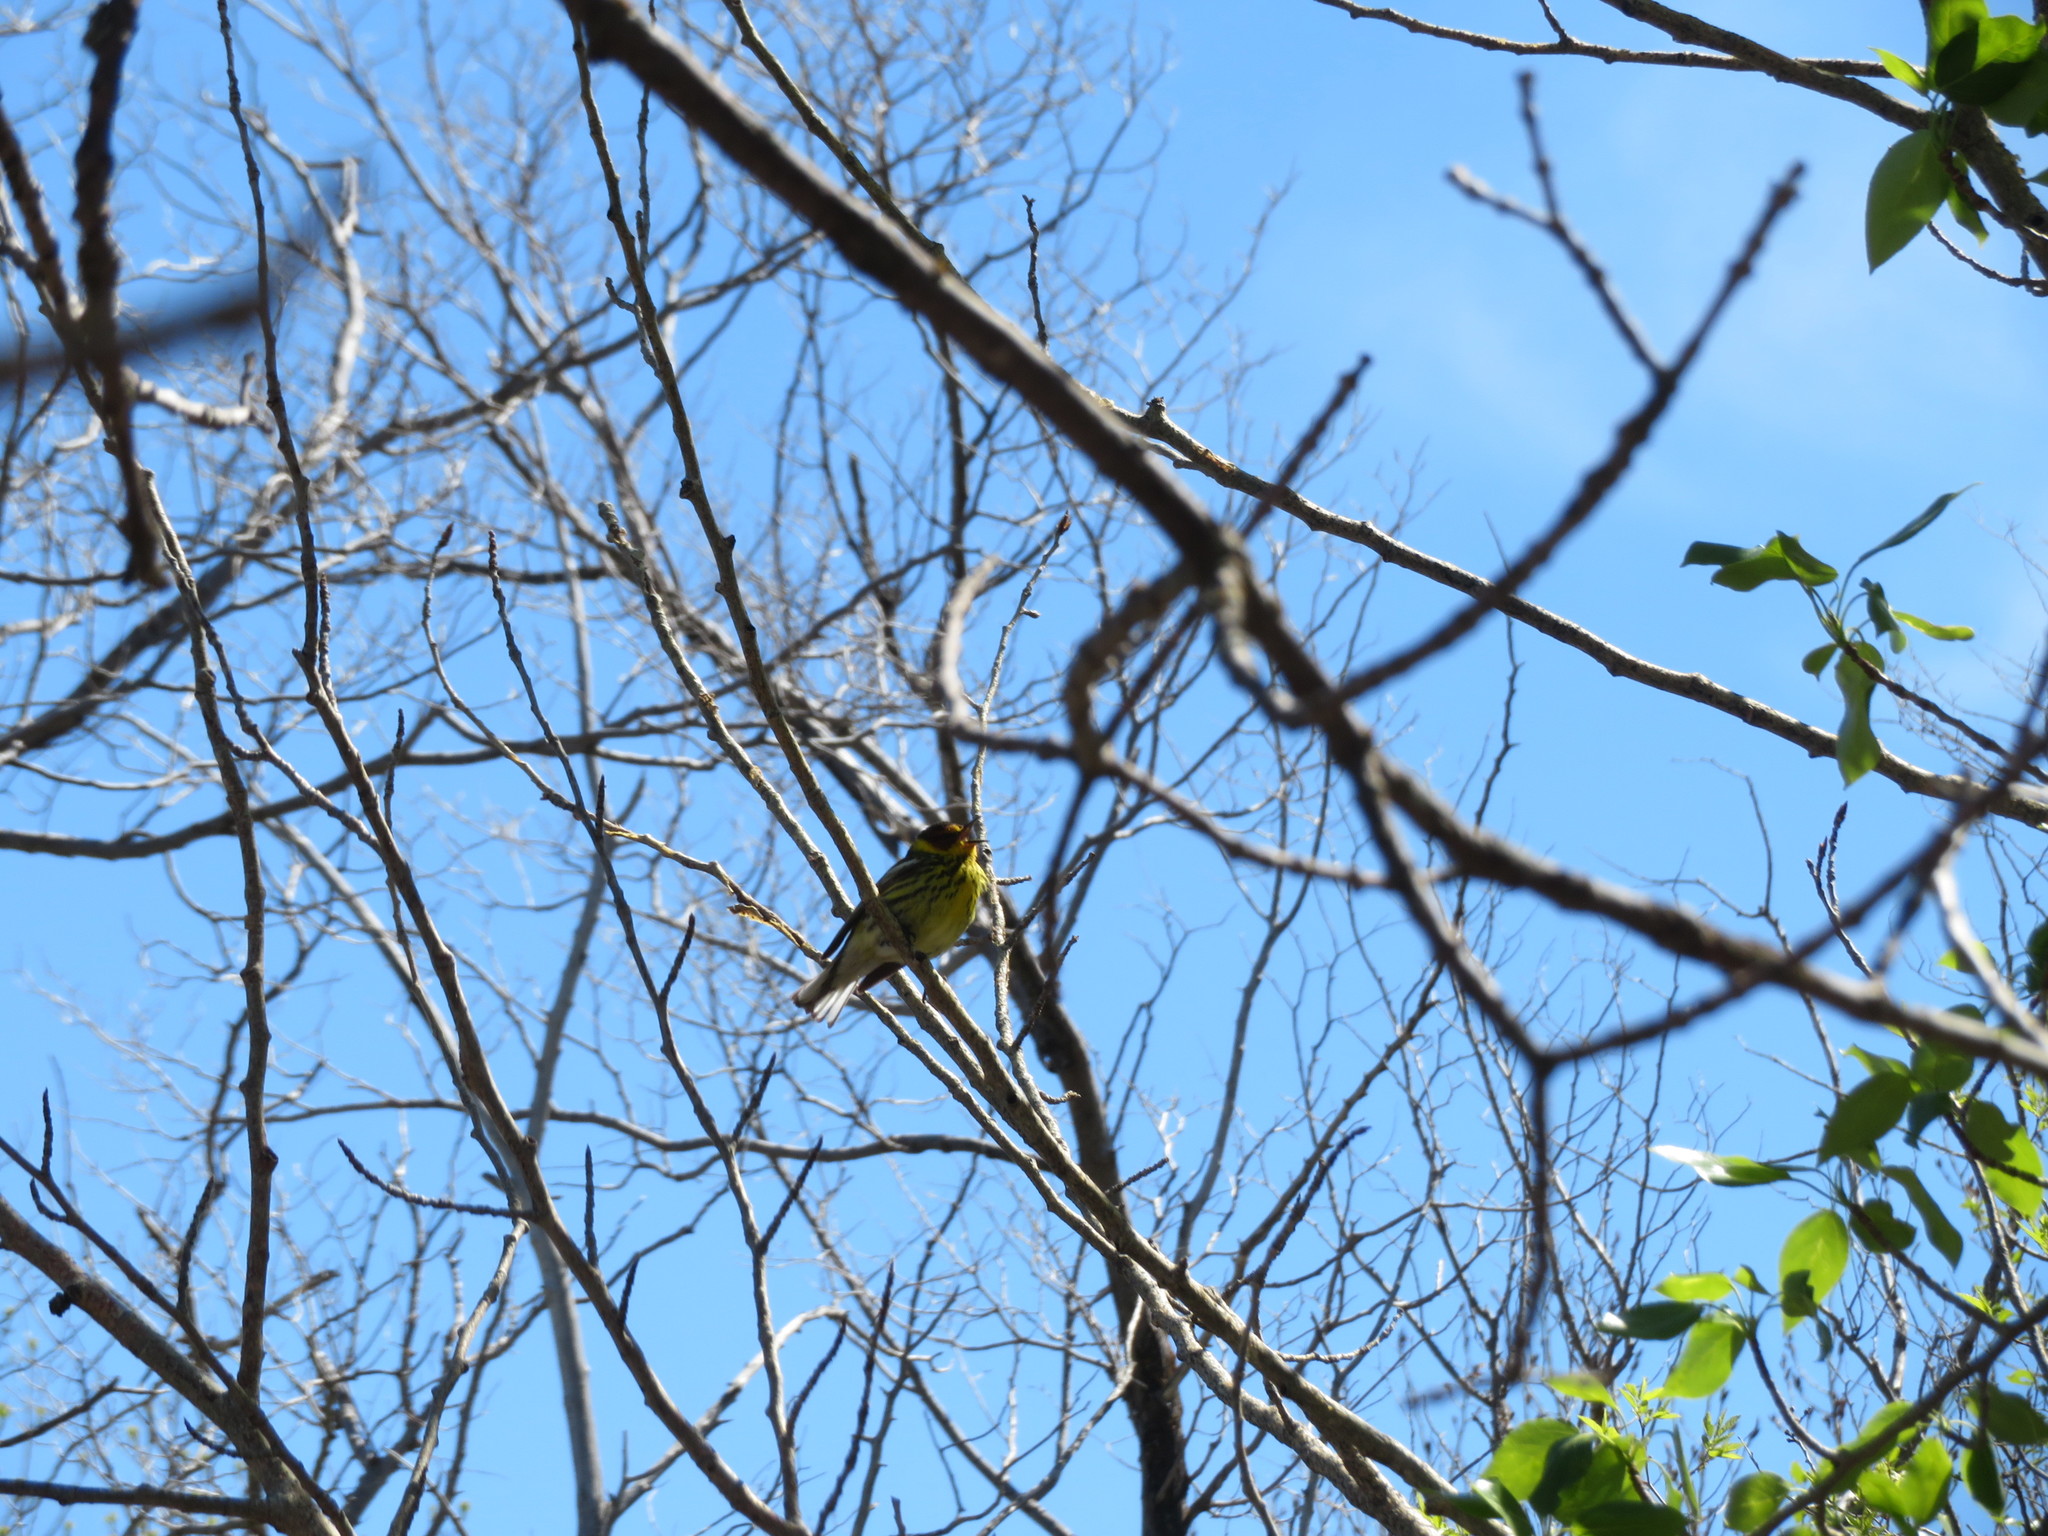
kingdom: Animalia
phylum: Chordata
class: Aves
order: Passeriformes
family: Parulidae
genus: Setophaga
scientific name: Setophaga tigrina
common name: Cape may warbler
